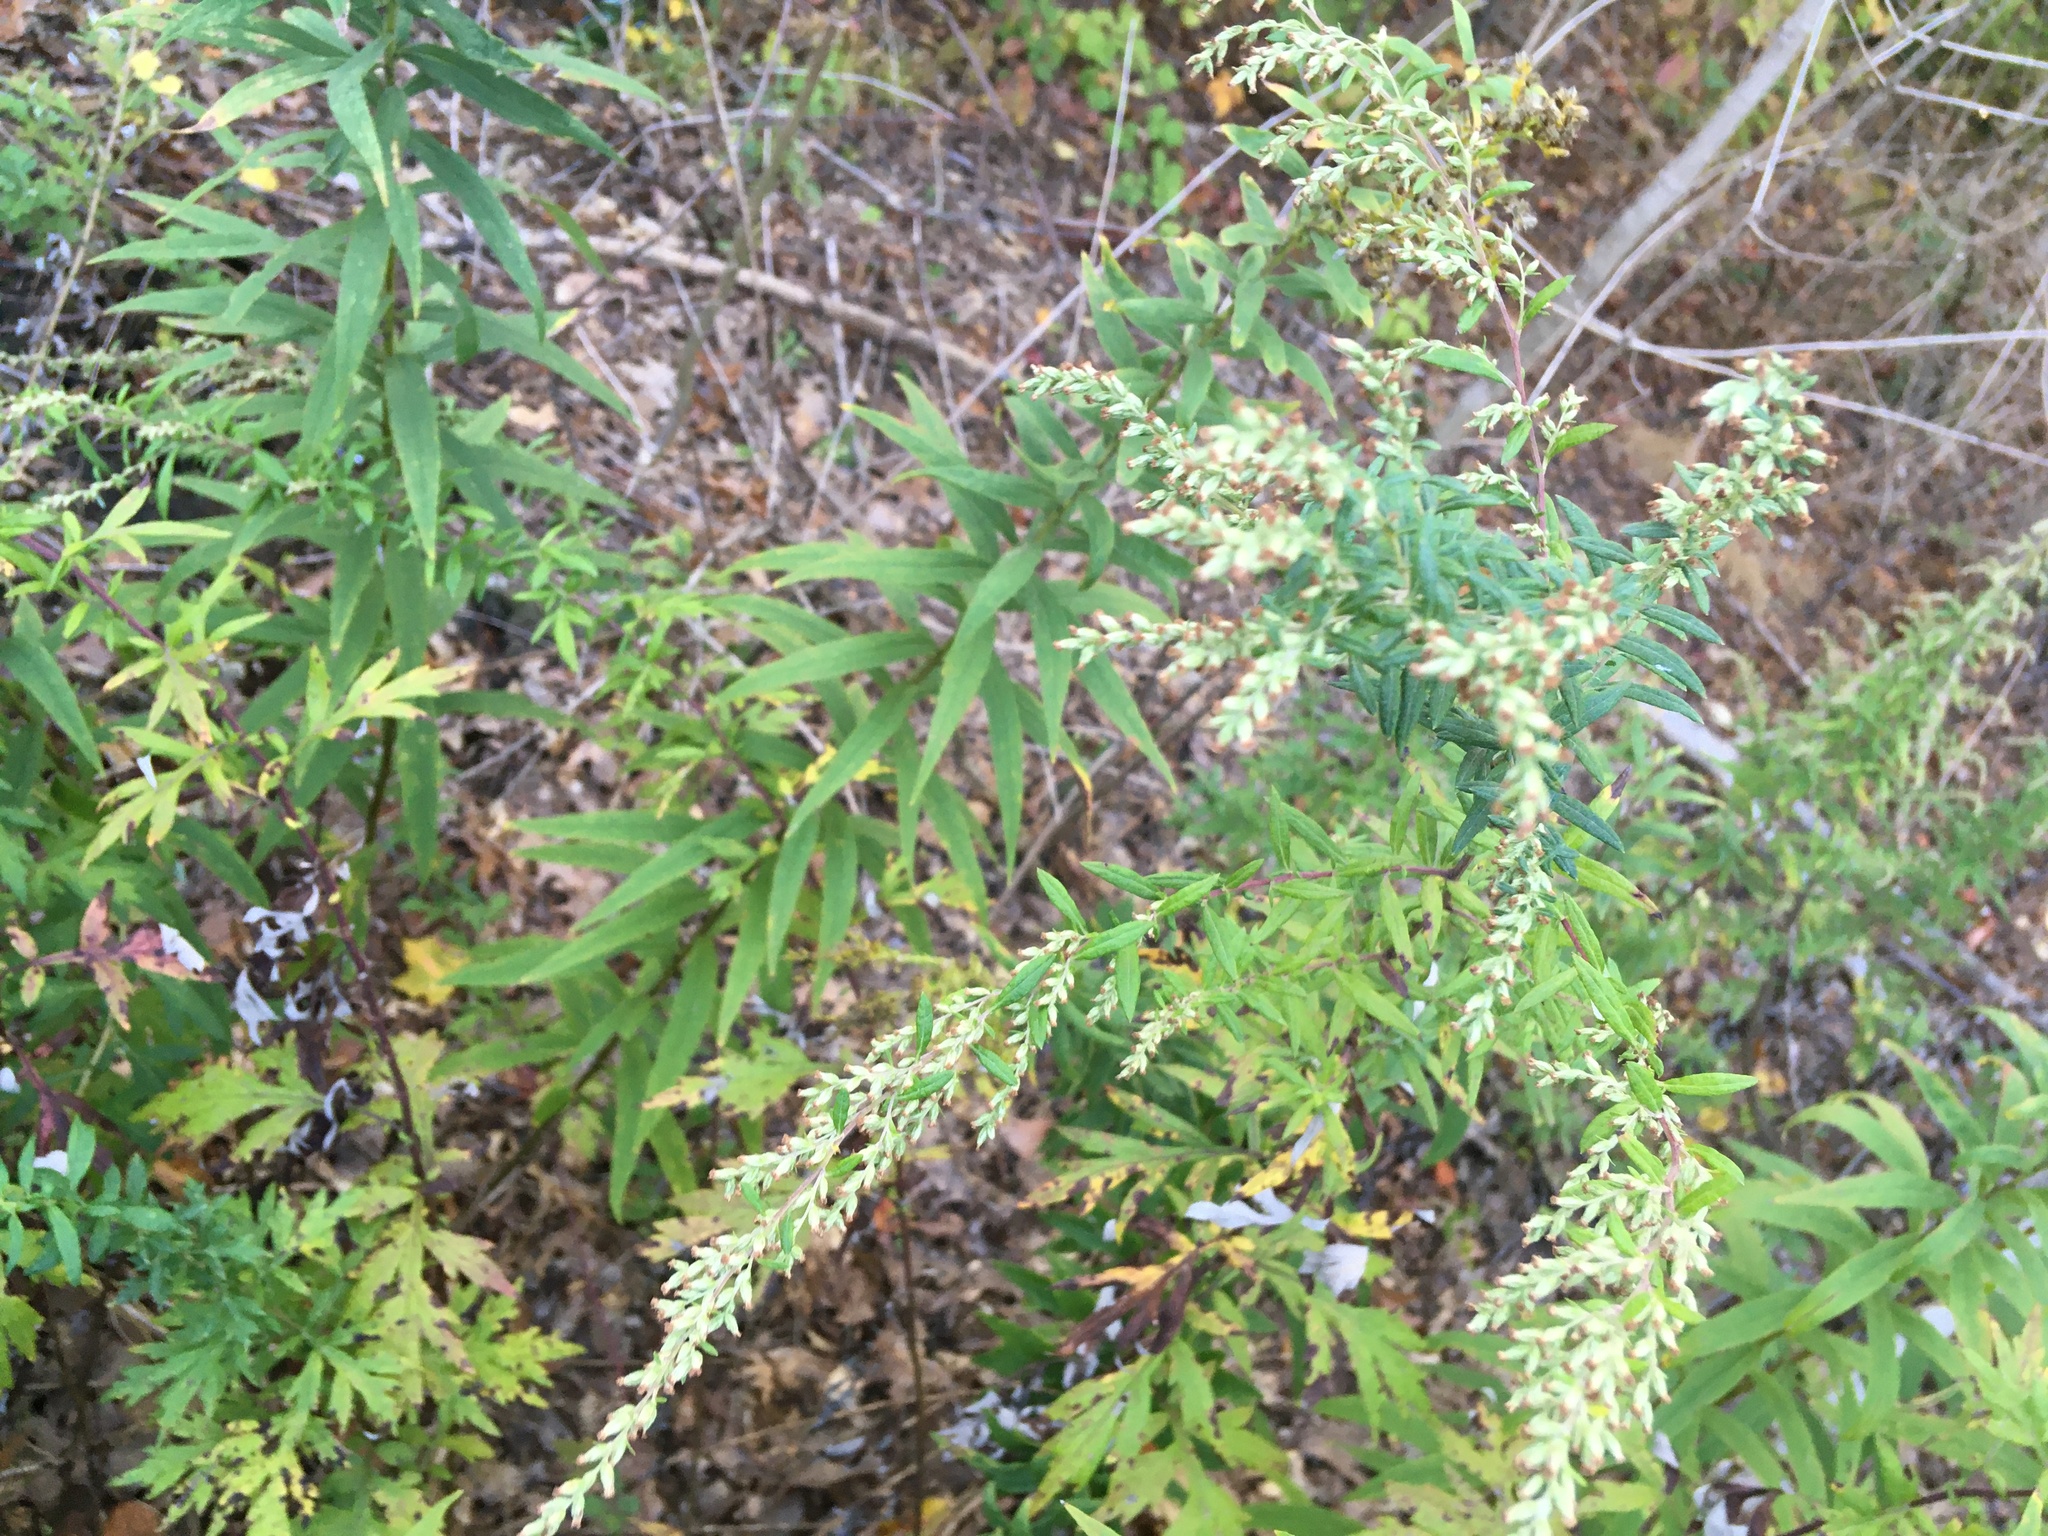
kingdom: Plantae
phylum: Tracheophyta
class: Magnoliopsida
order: Asterales
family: Asteraceae
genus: Artemisia
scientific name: Artemisia vulgaris
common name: Mugwort
